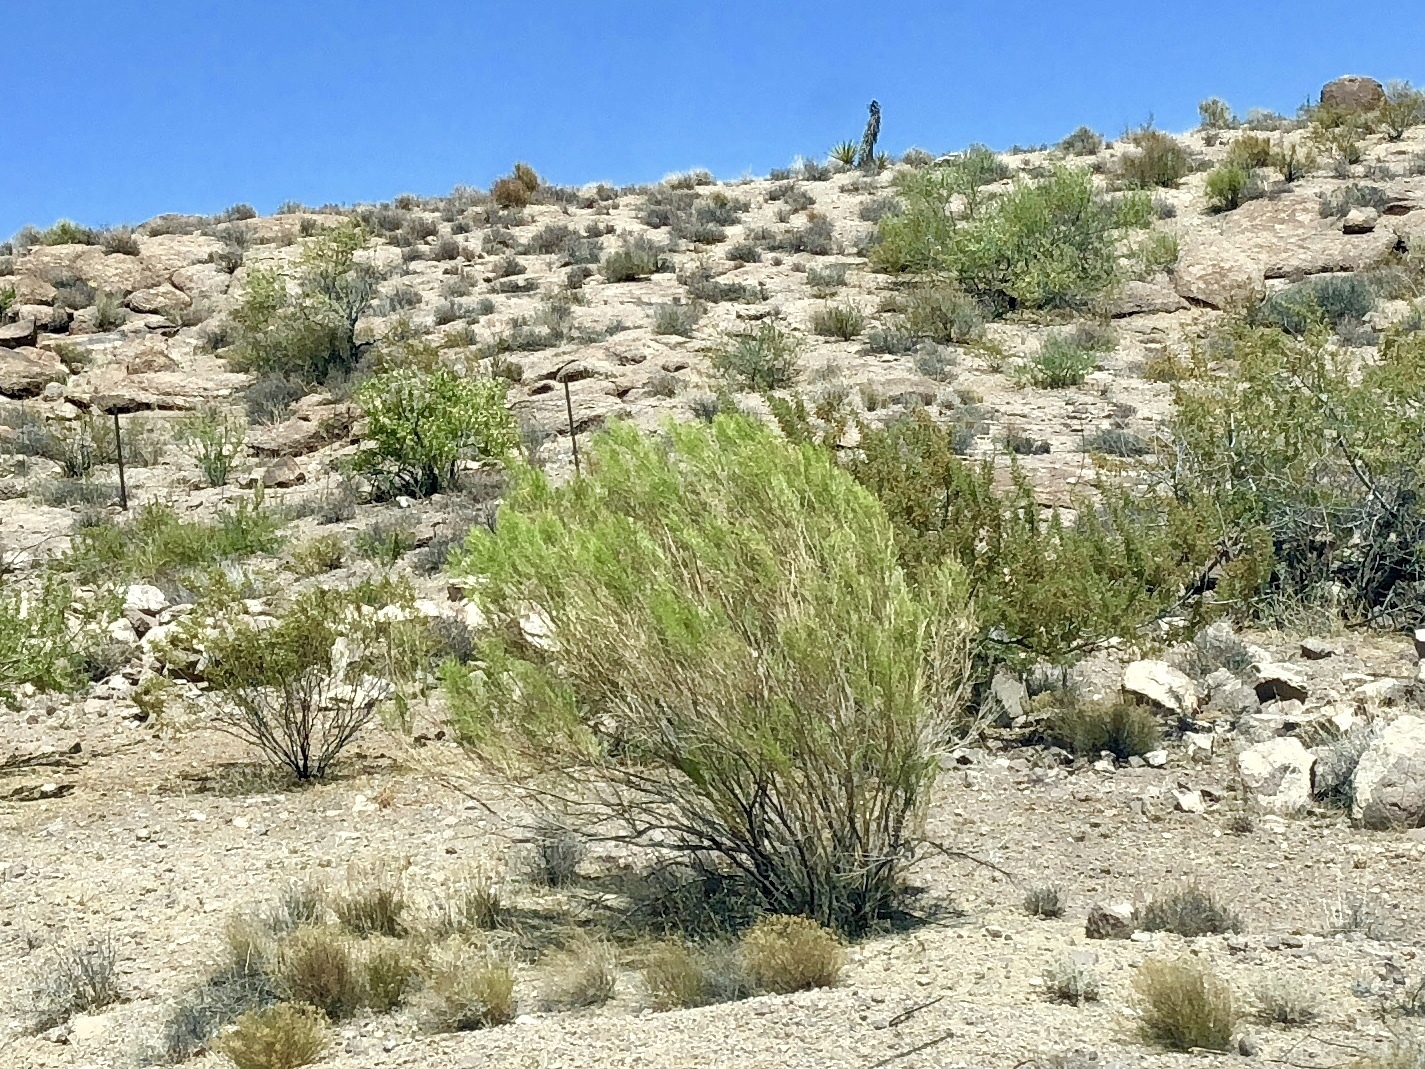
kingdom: Plantae
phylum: Tracheophyta
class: Magnoliopsida
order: Asterales
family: Asteraceae
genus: Baccharis
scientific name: Baccharis sarothroides
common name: Desert-broom
